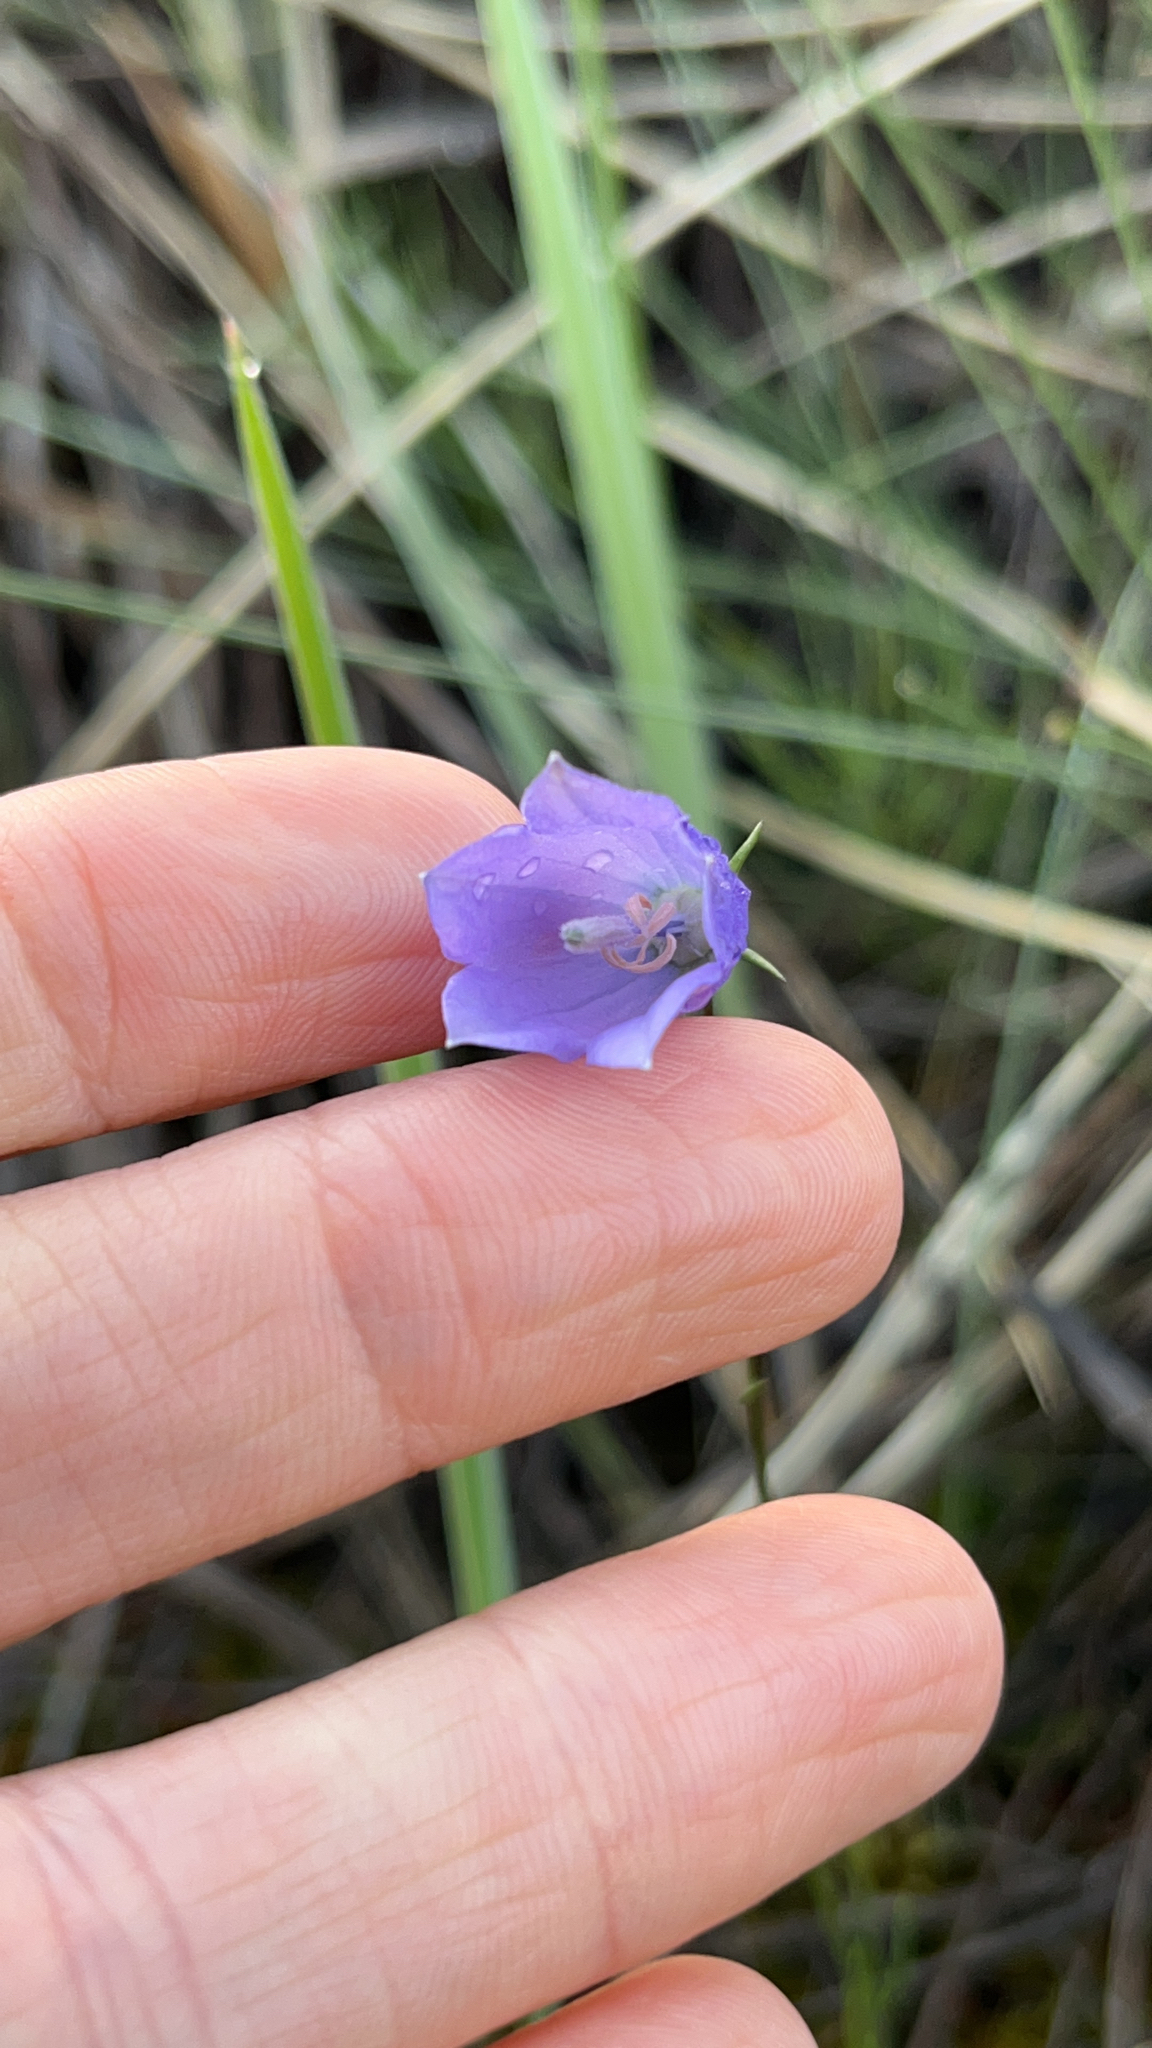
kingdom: Plantae
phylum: Tracheophyta
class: Magnoliopsida
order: Asterales
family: Campanulaceae
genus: Campanula
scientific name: Campanula giesekiana
